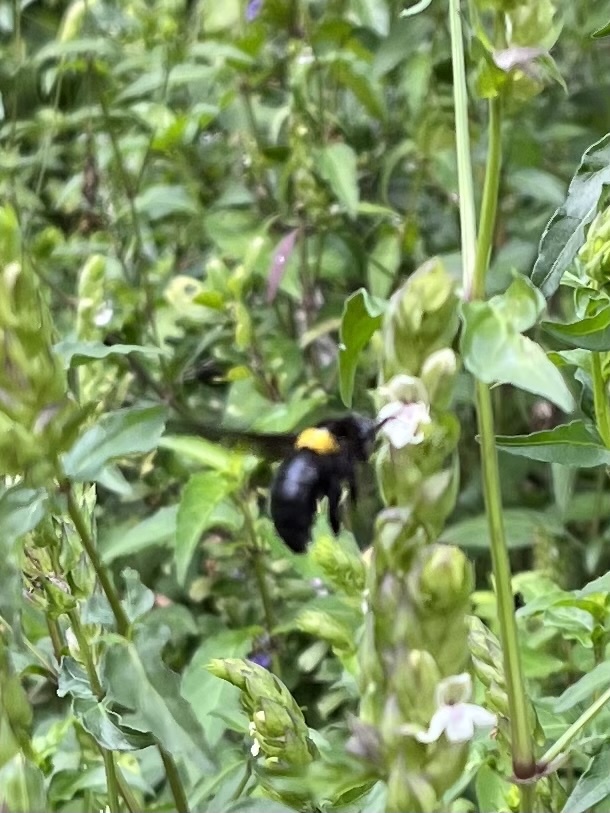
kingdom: Animalia
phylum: Arthropoda
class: Insecta
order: Hymenoptera
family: Apidae
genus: Xylocopa
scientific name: Xylocopa flavicollis
